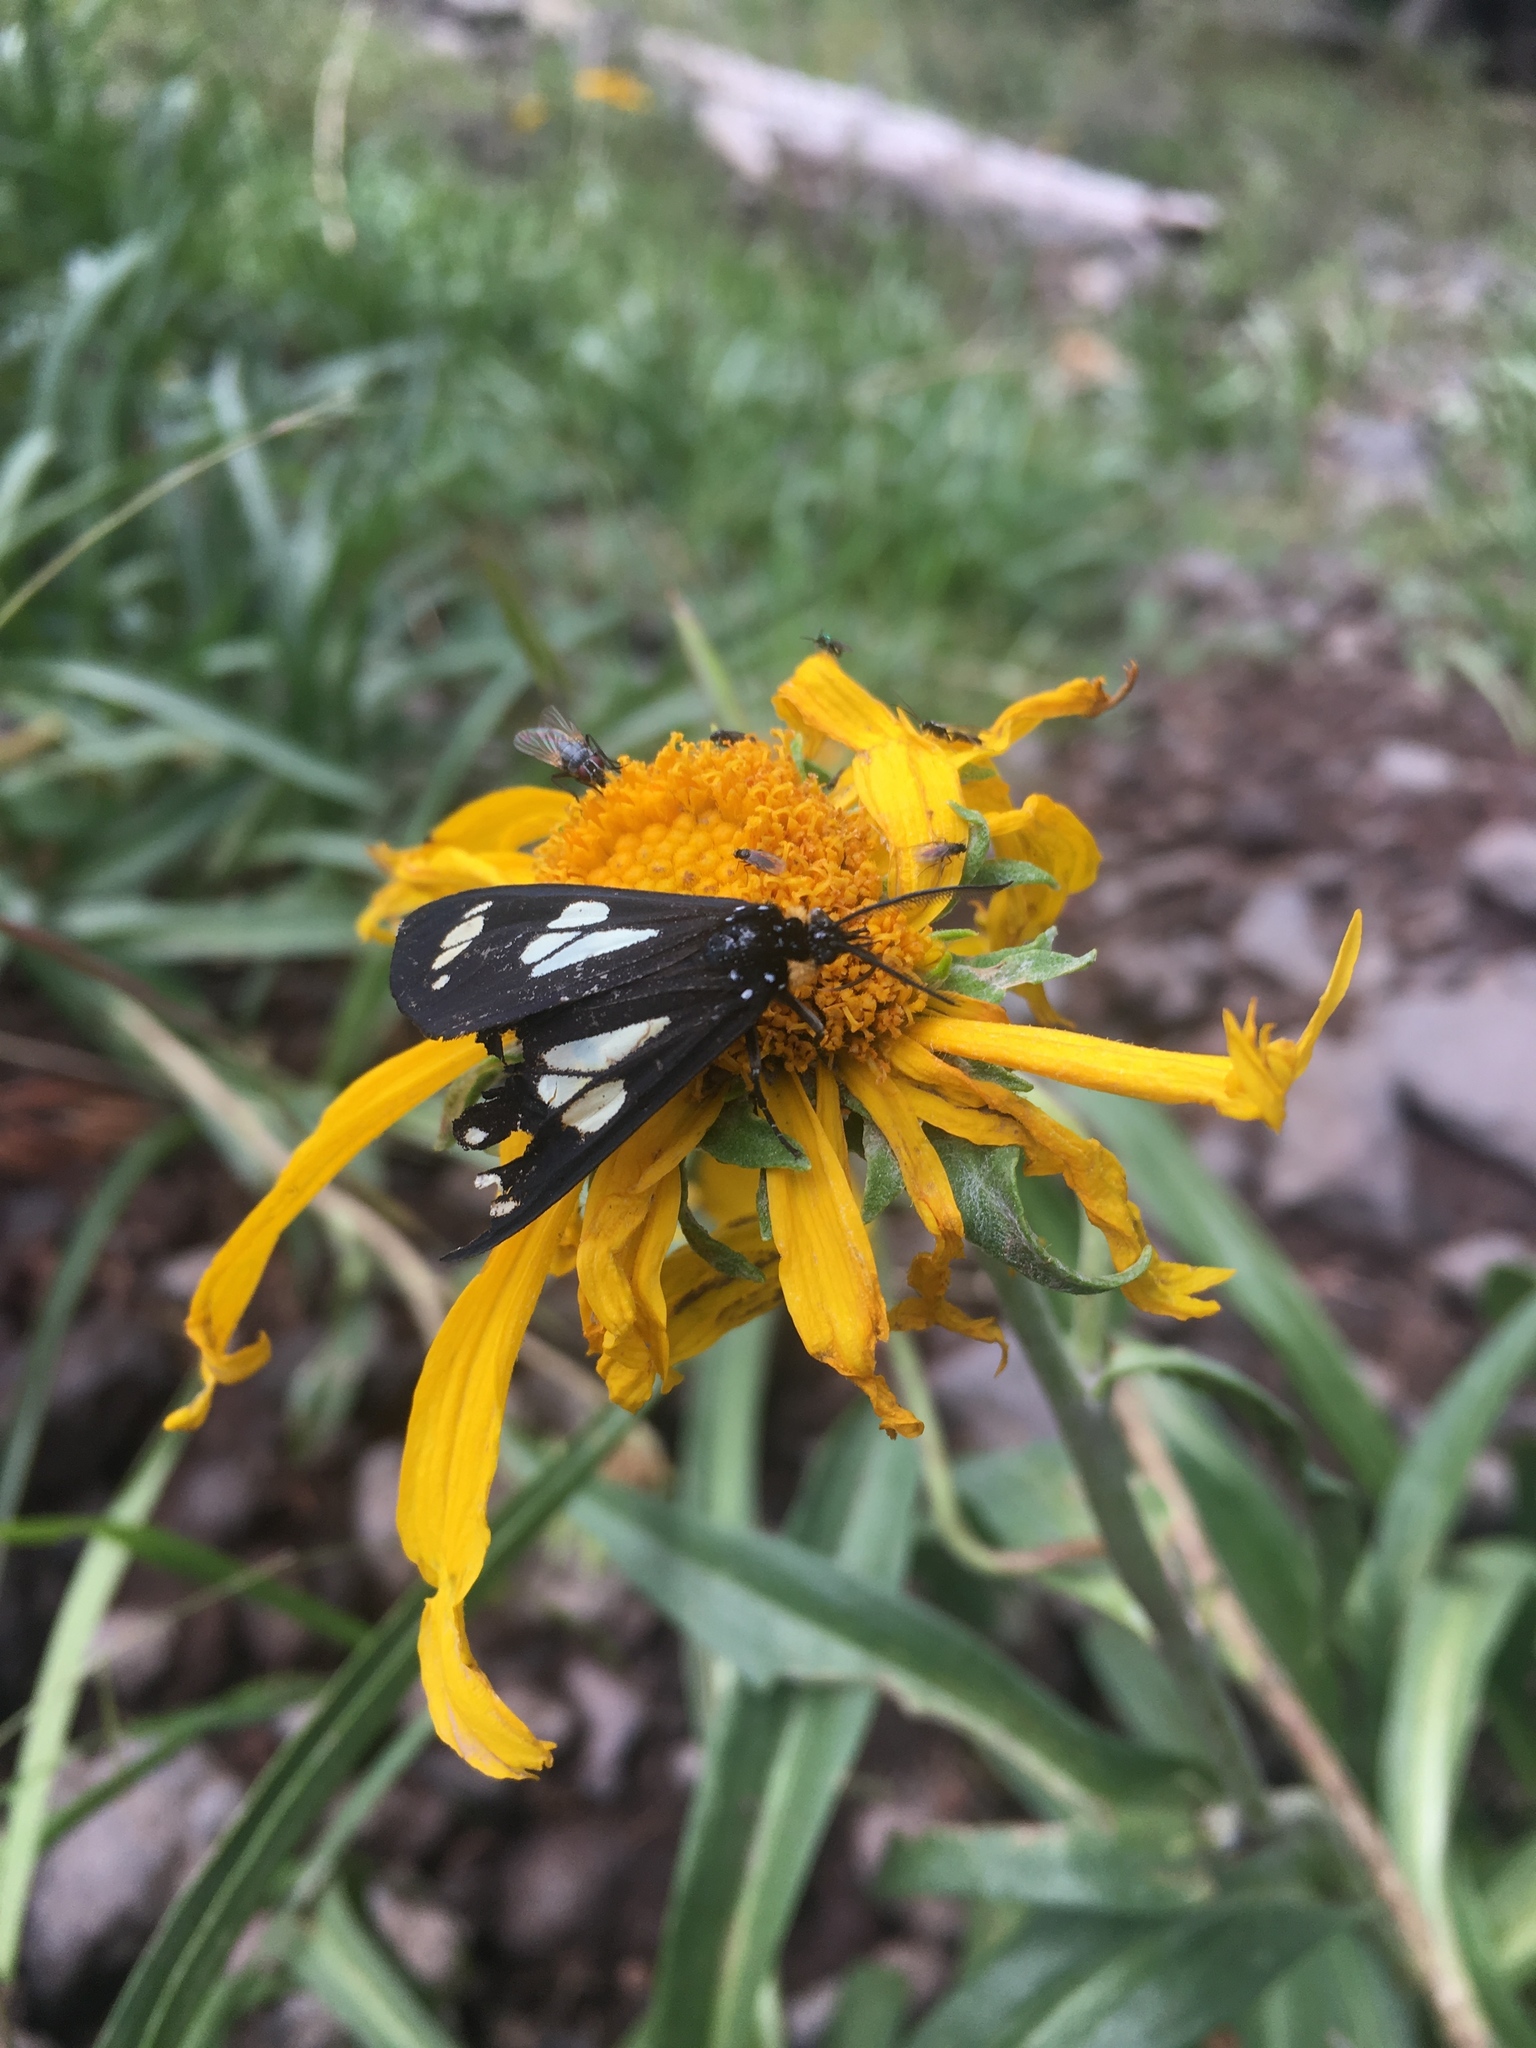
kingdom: Animalia
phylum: Arthropoda
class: Insecta
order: Lepidoptera
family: Erebidae
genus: Gnophaela
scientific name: Gnophaela discreta
